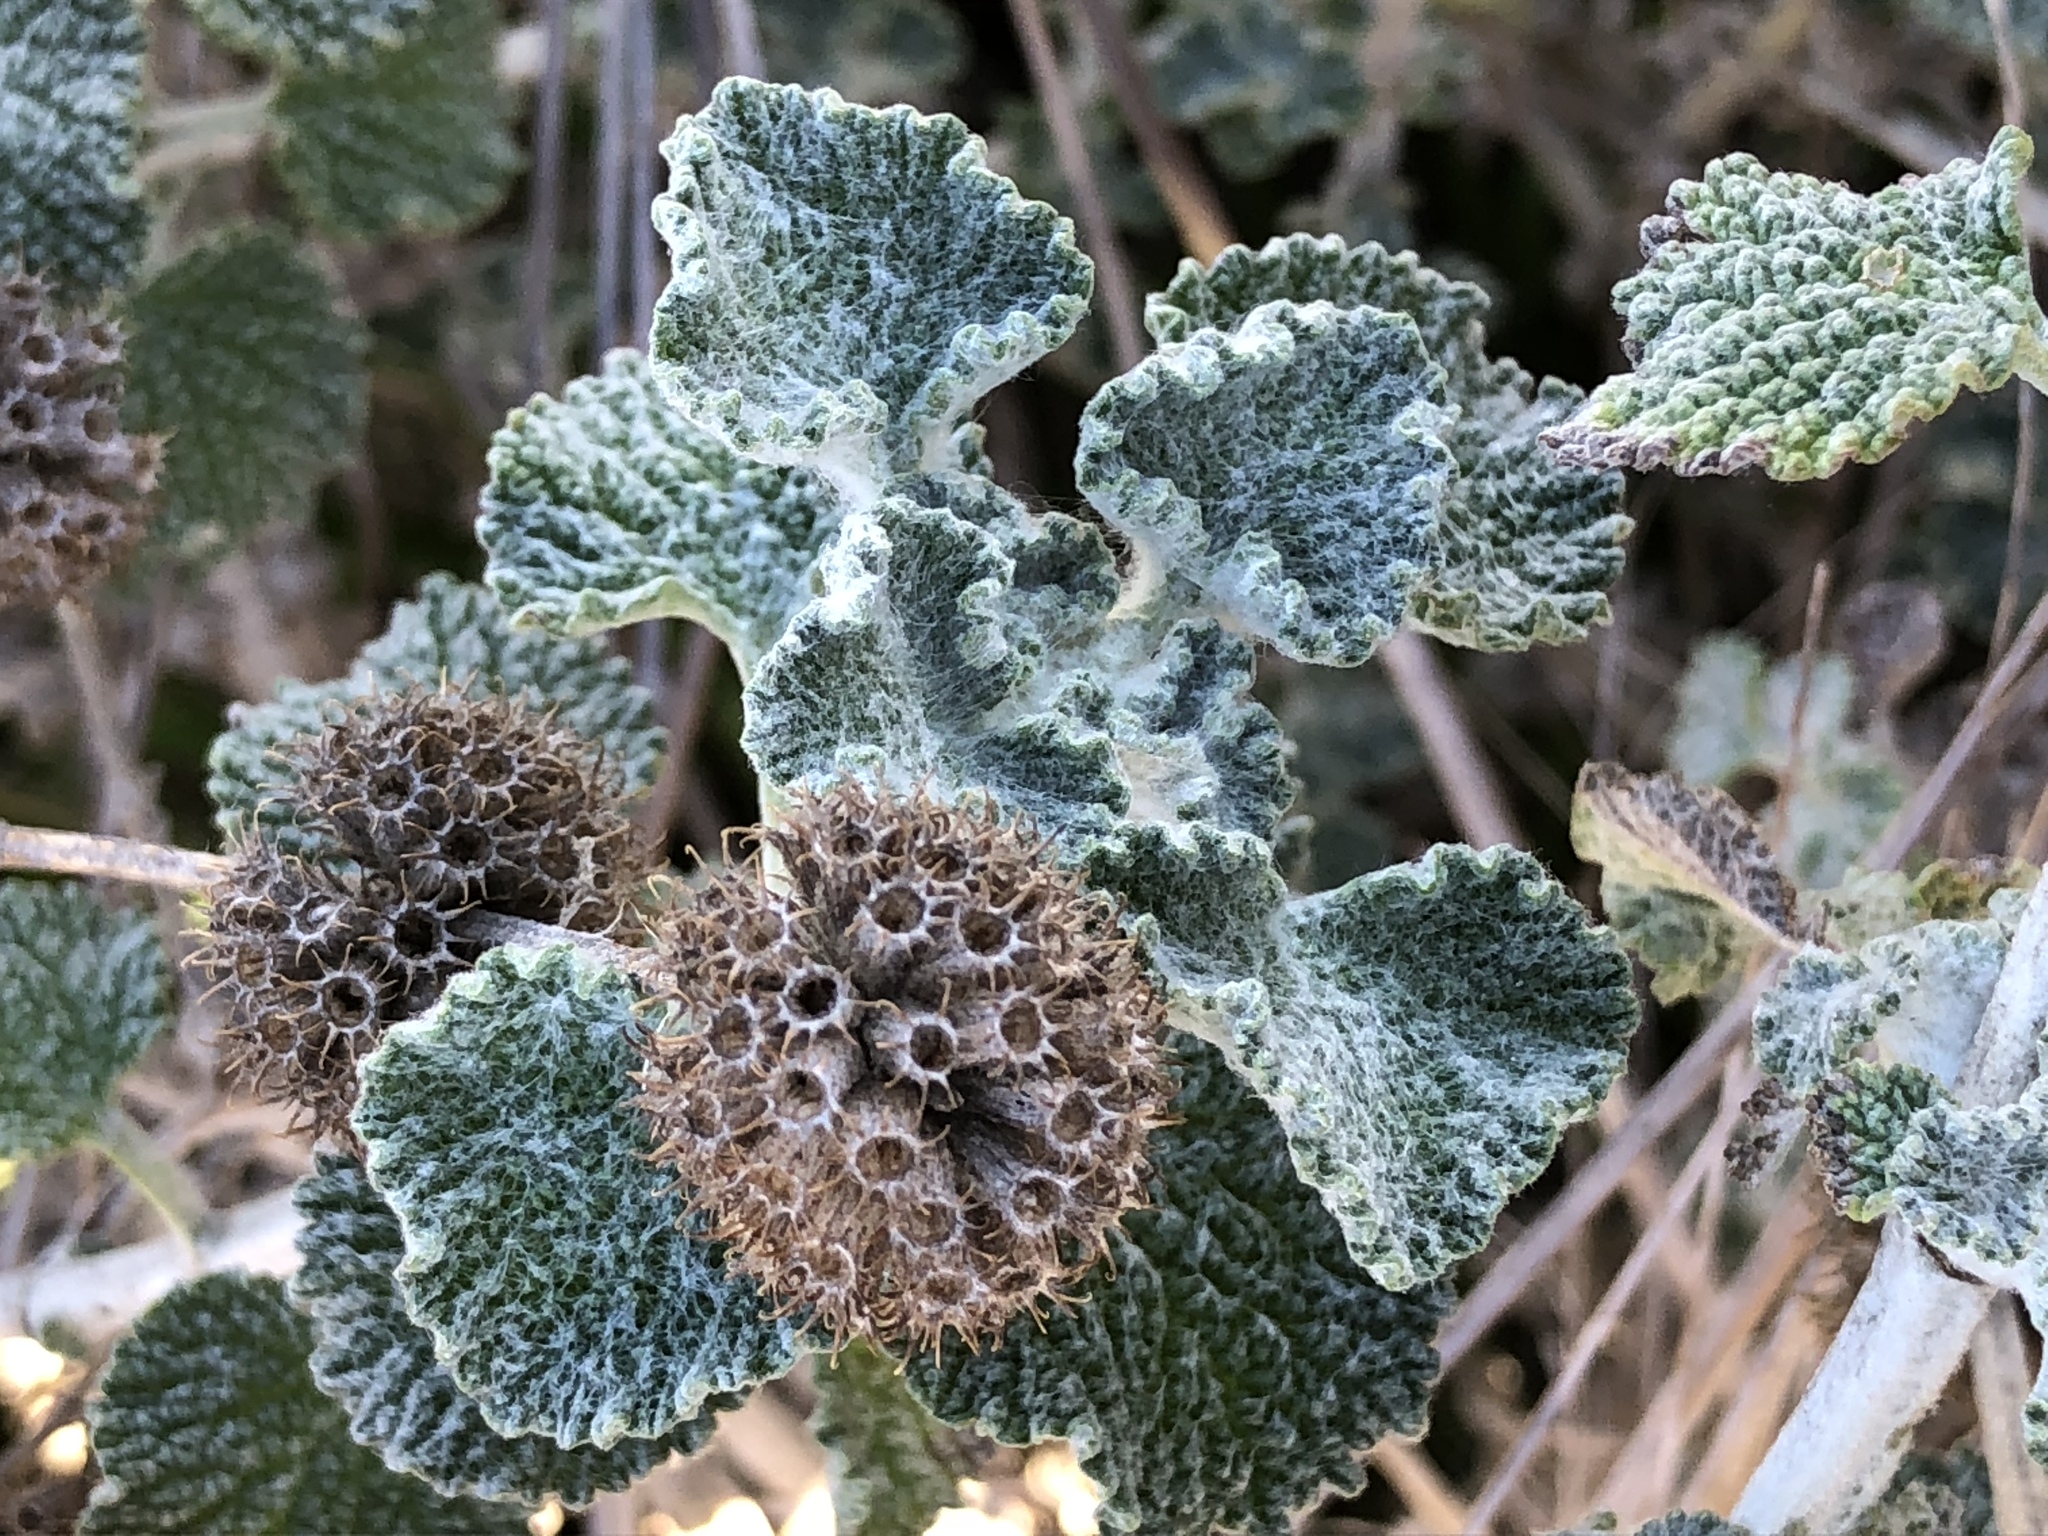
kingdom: Plantae
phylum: Tracheophyta
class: Magnoliopsida
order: Lamiales
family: Lamiaceae
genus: Marrubium
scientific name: Marrubium vulgare
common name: Horehound
